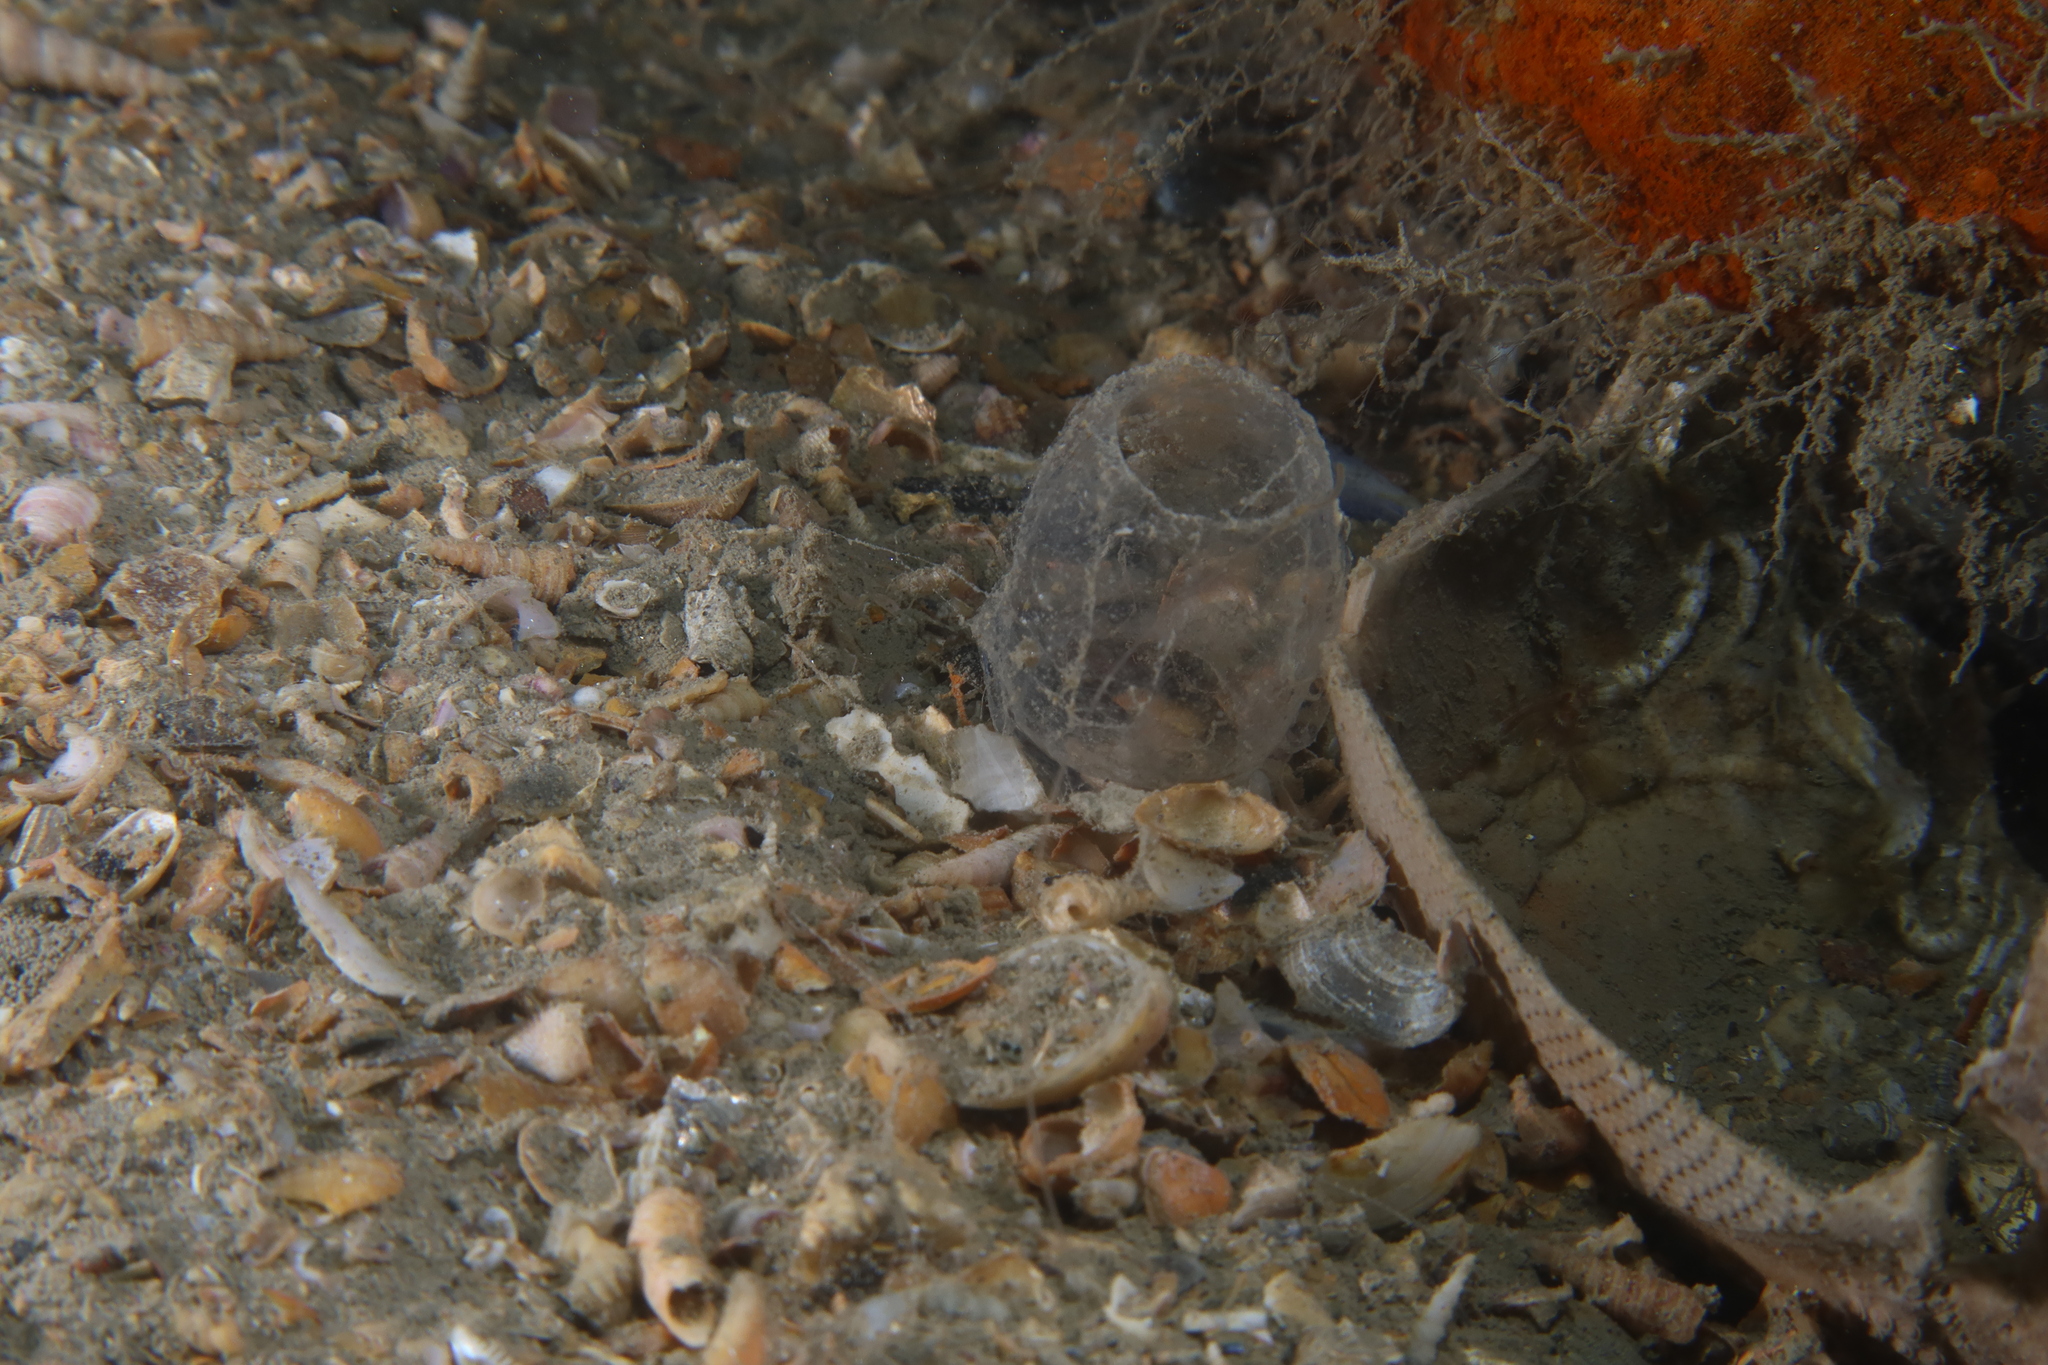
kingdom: Animalia
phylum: Annelida
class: Polychaeta
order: Sabellida
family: Sabellidae
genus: Myxicola
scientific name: Myxicola infundibulum
